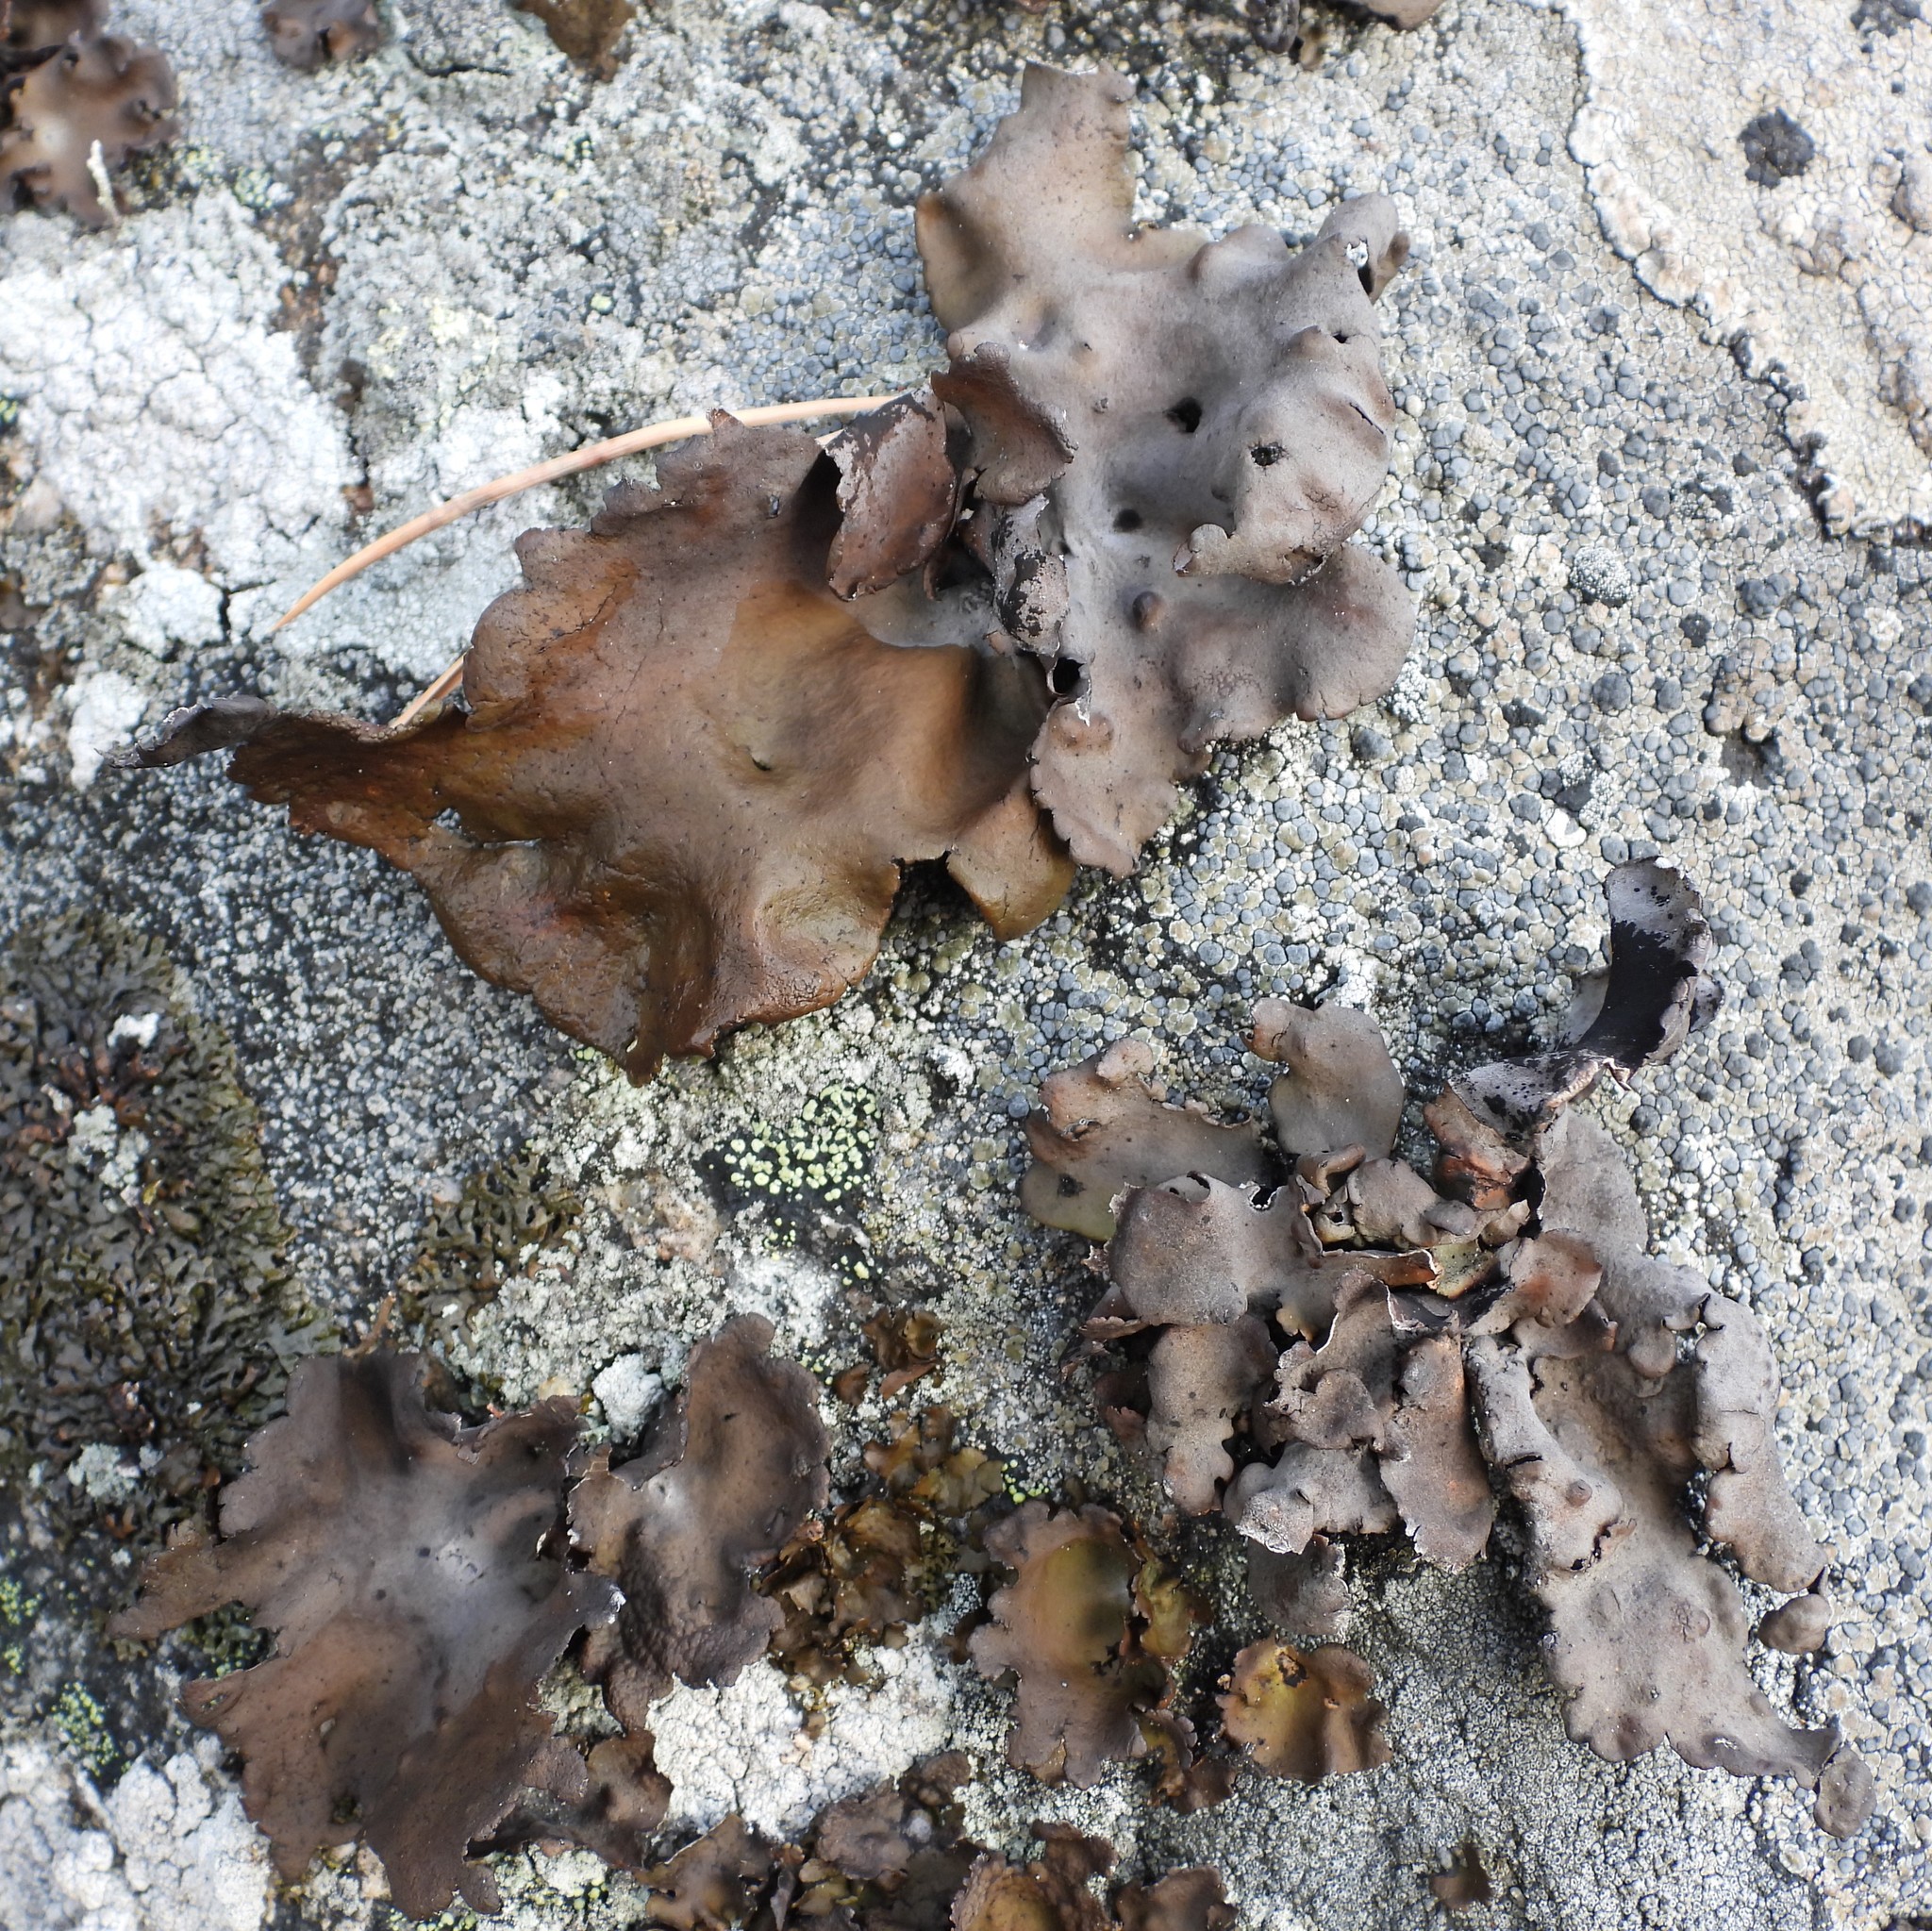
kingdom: Fungi
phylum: Ascomycota
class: Lecanoromycetes
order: Umbilicariales
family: Umbilicariaceae
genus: Umbilicaria
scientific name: Umbilicaria polyphylla
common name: Petalled rocktripe lichen
